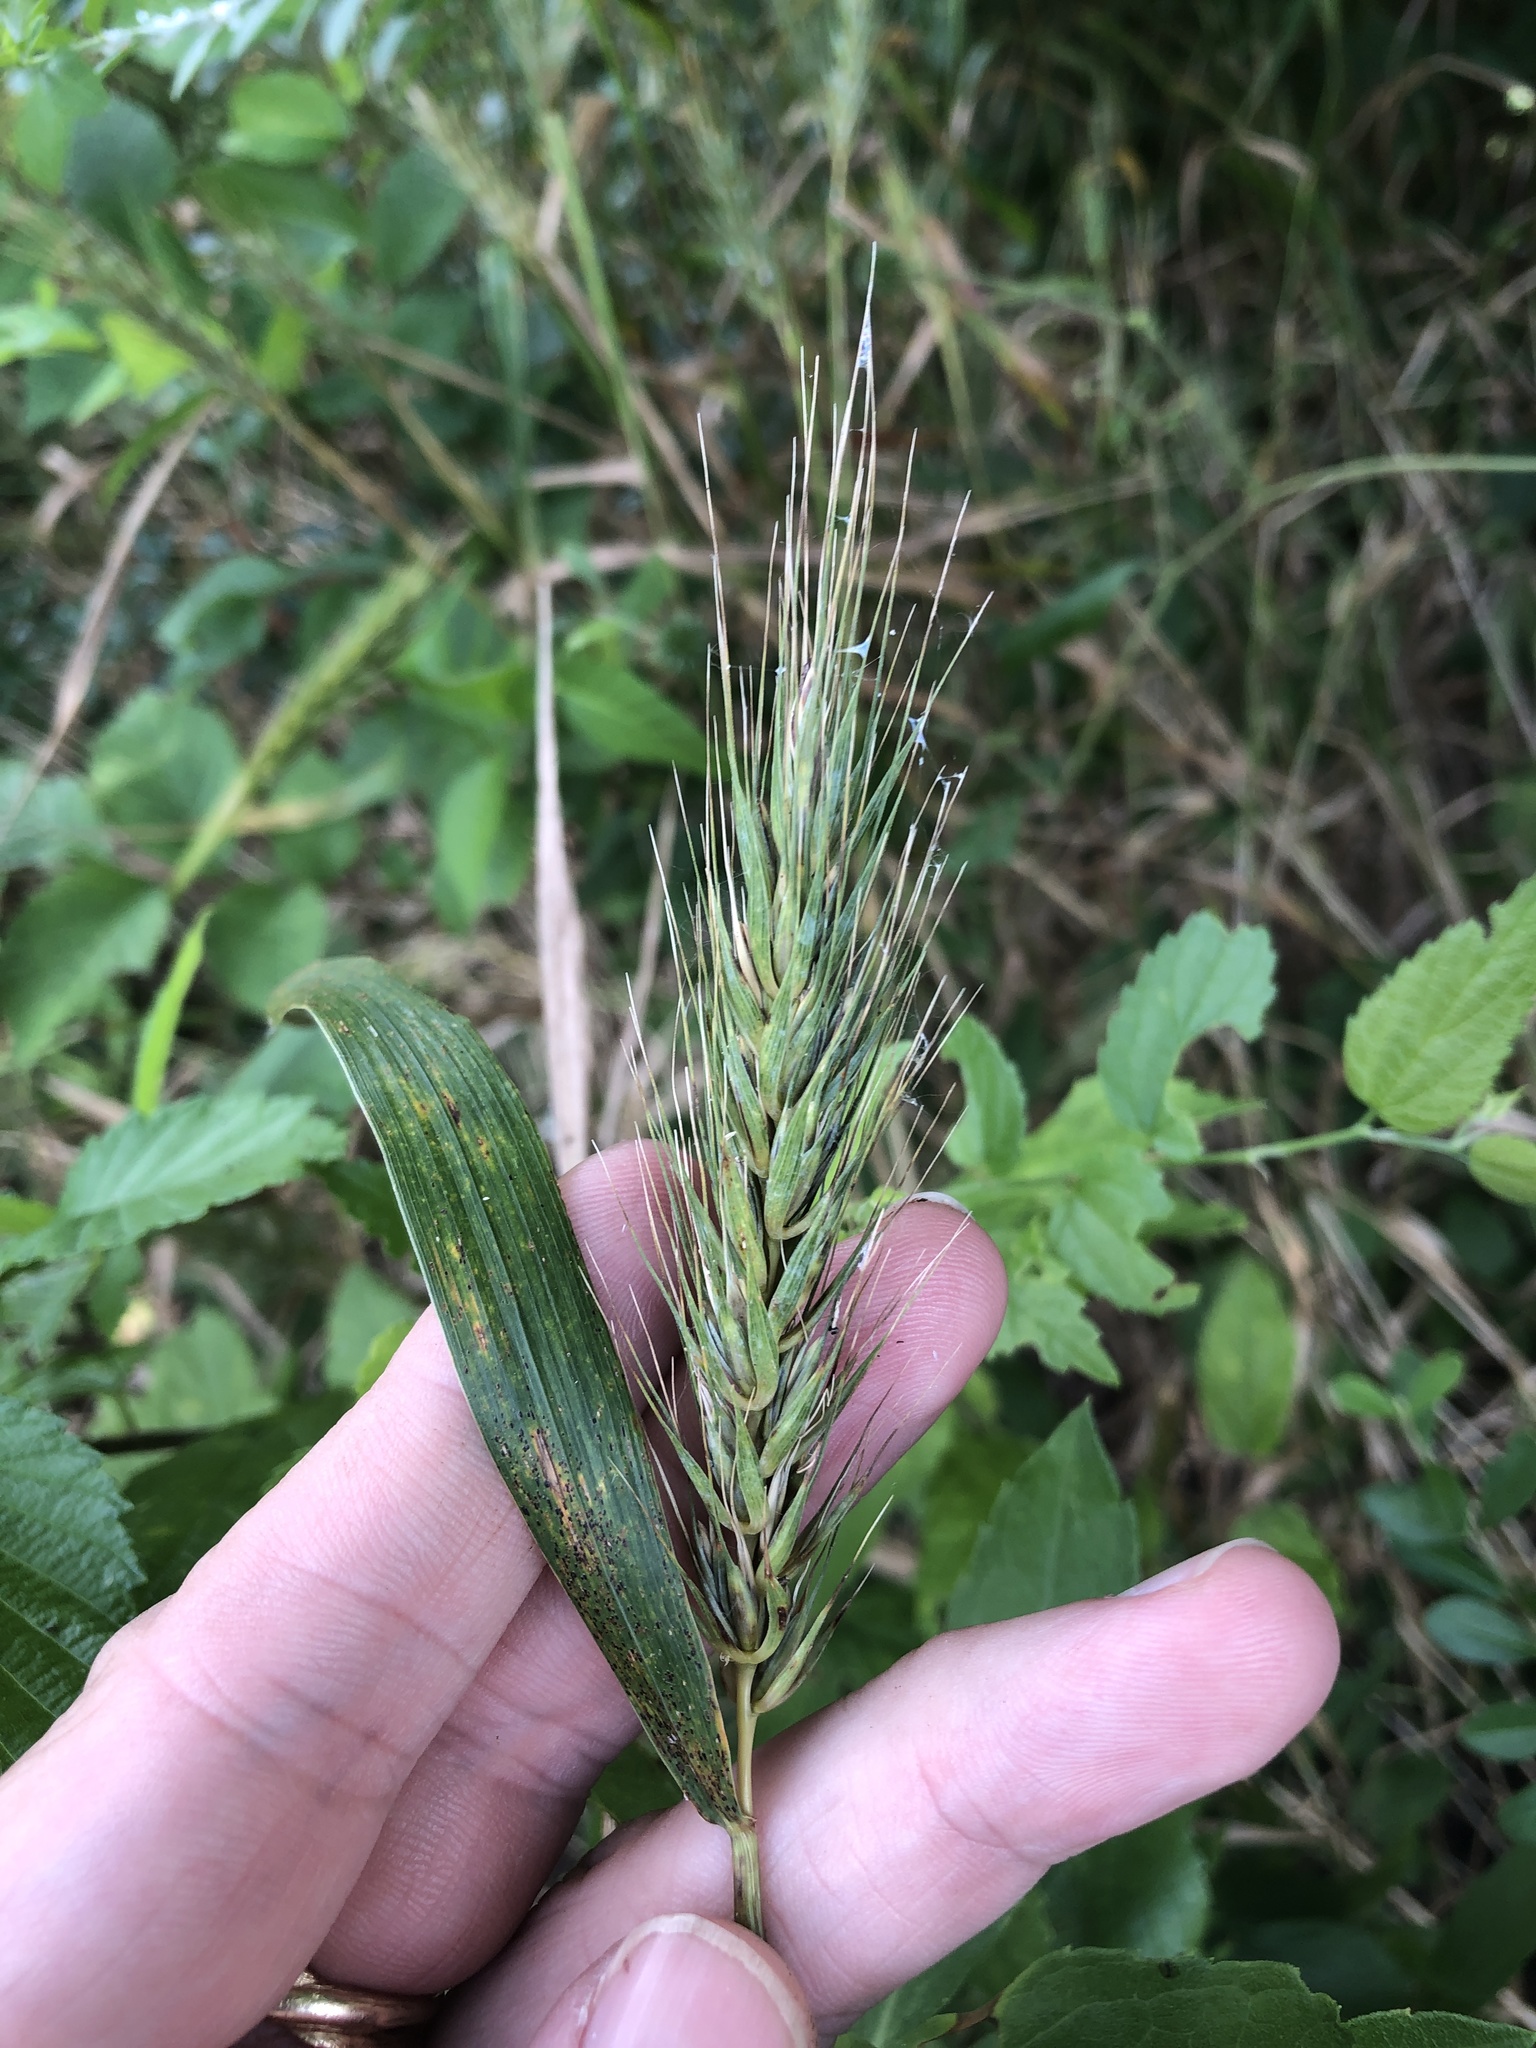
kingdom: Plantae
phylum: Tracheophyta
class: Liliopsida
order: Poales
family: Poaceae
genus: Elymus
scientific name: Elymus virginicus
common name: Common eastern wildrye
